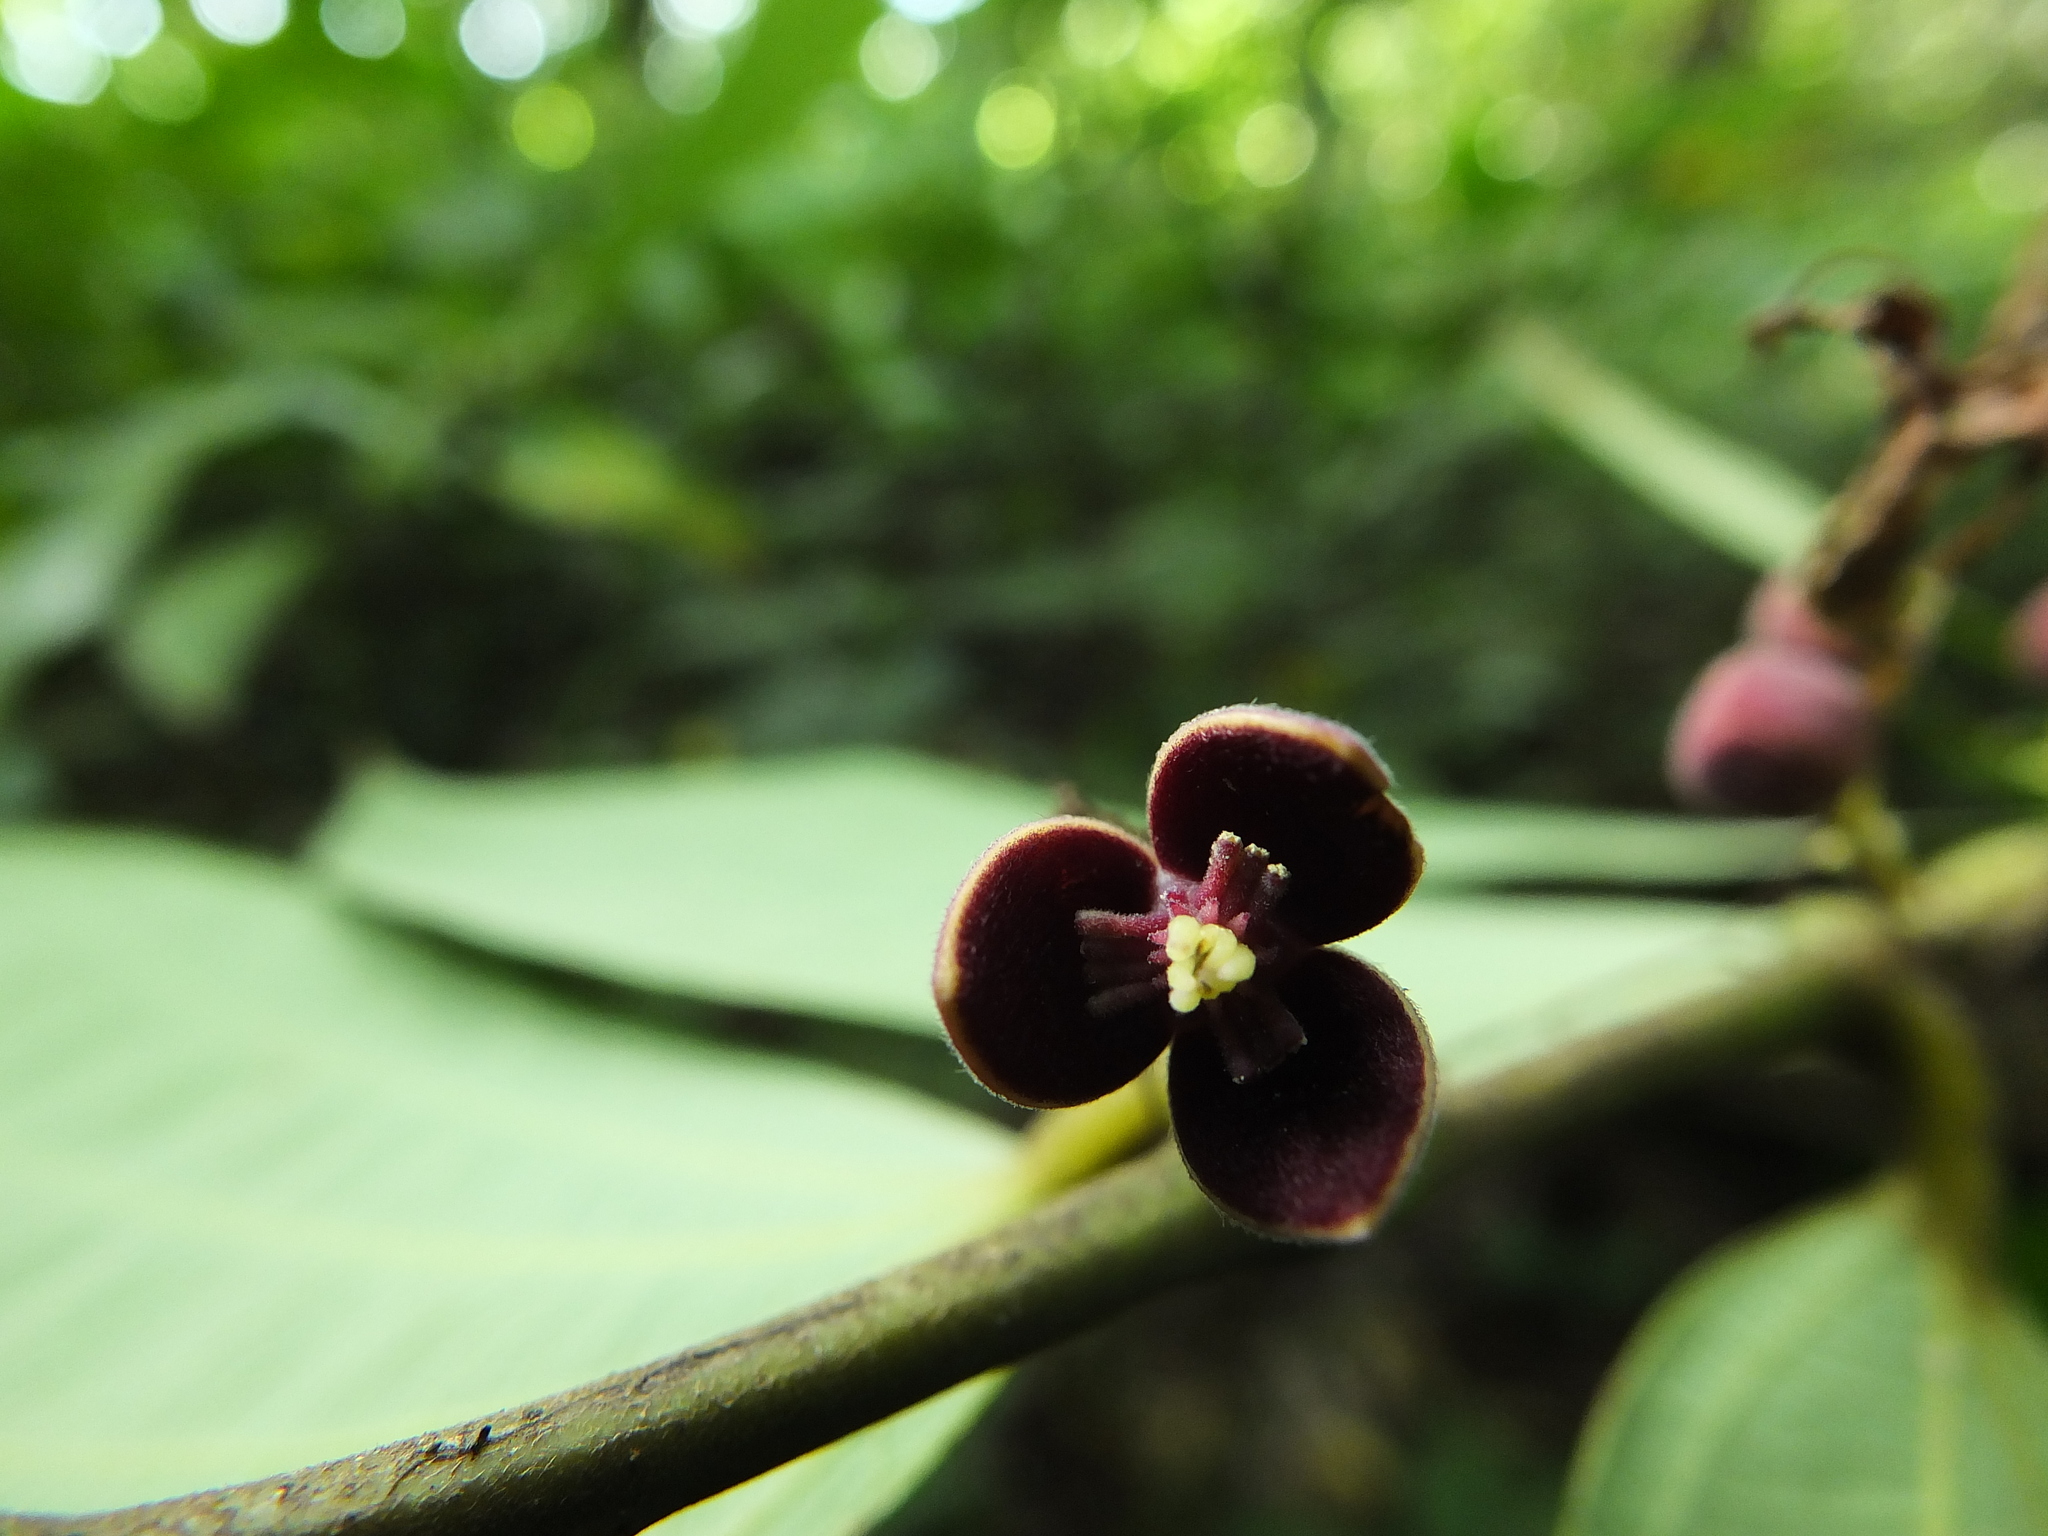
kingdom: Plantae
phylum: Tracheophyta
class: Magnoliopsida
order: Piperales
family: Aristolochiaceae
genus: Thottea
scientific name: Thottea siliquosa
